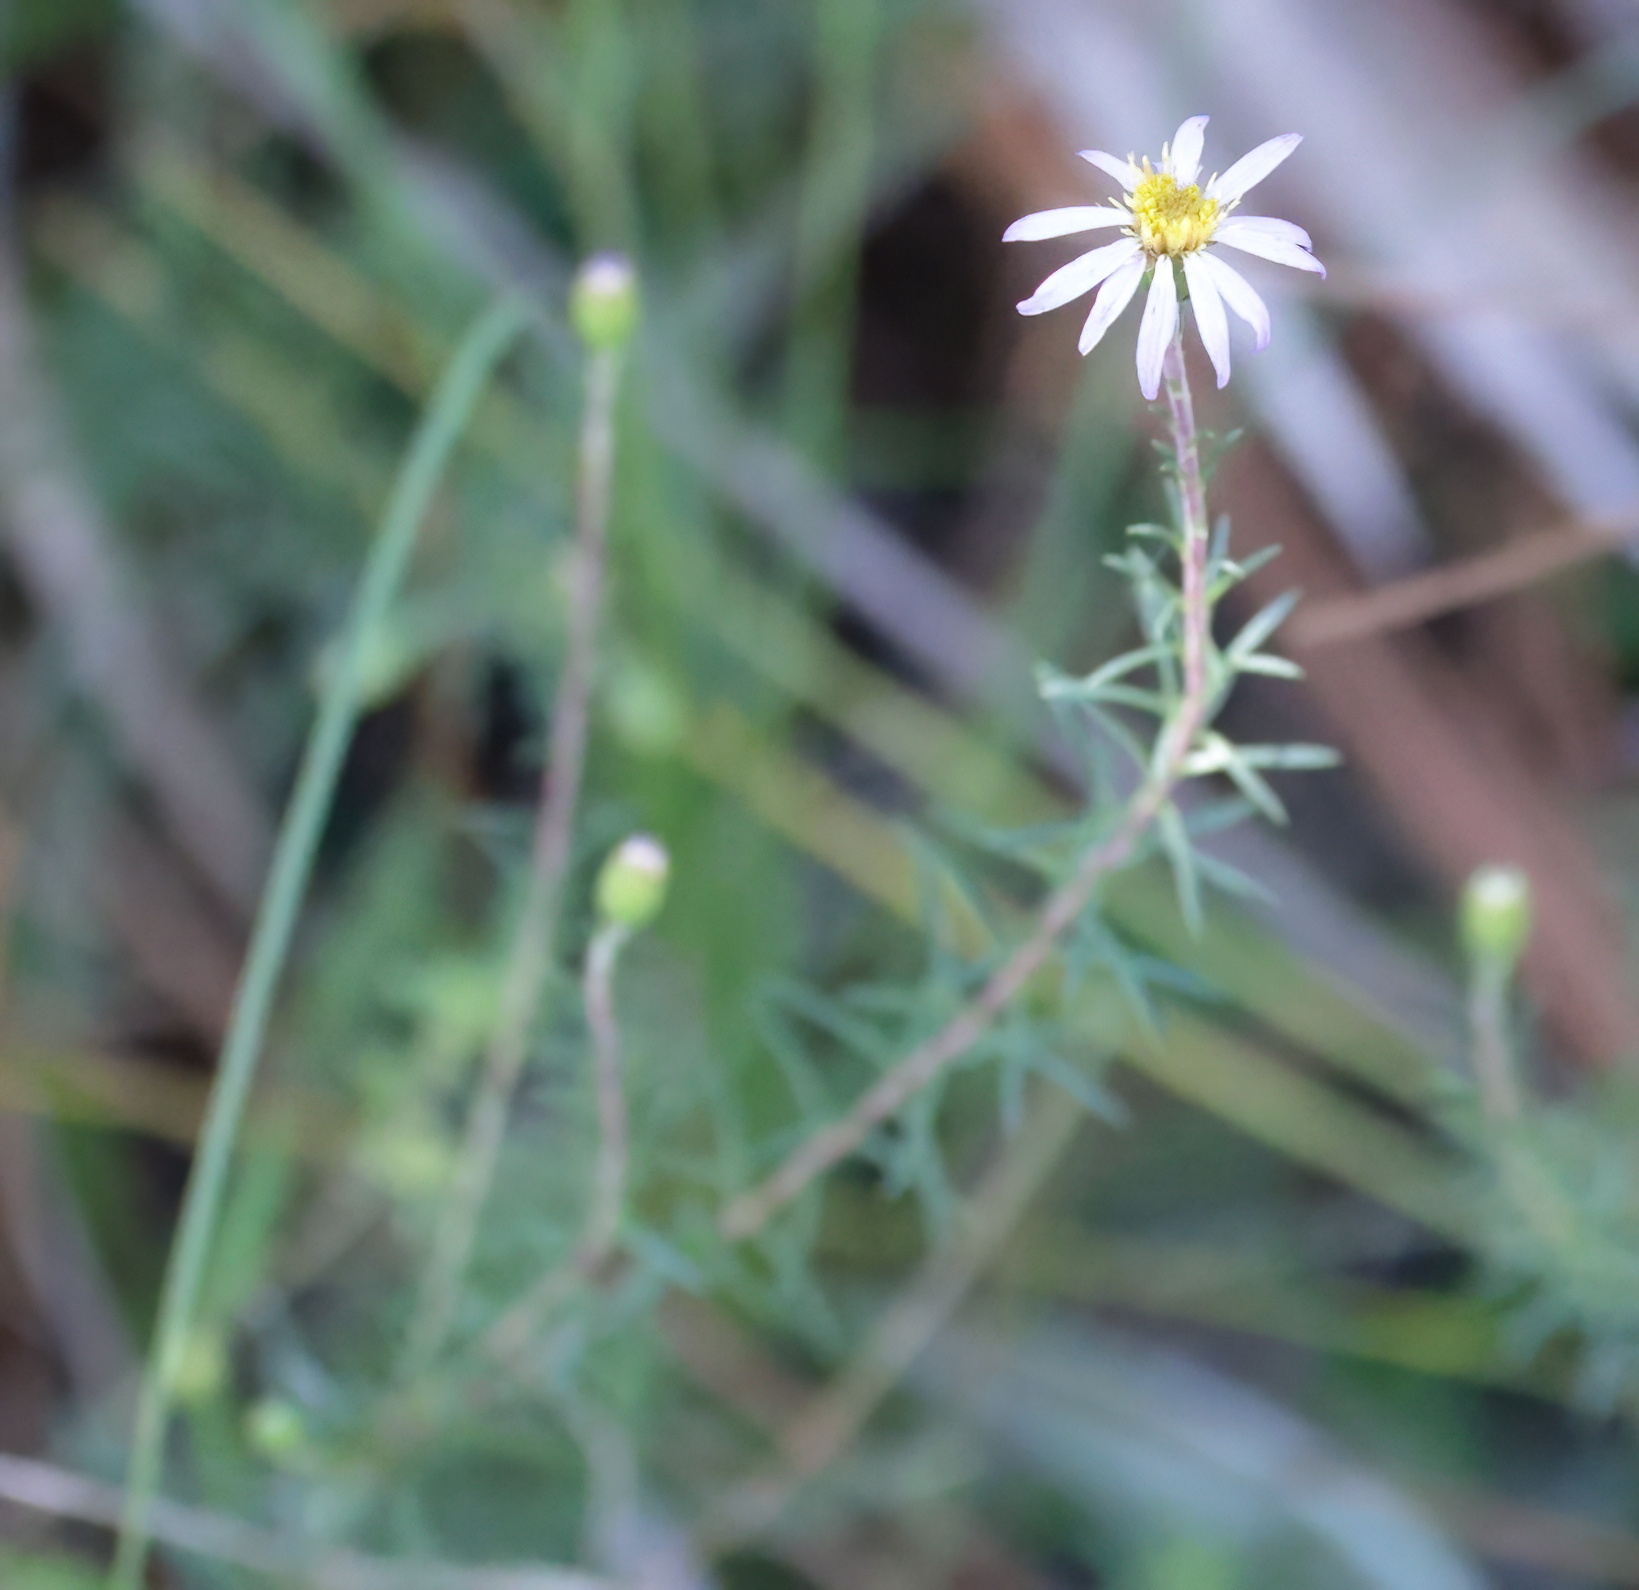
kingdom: Plantae
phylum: Tracheophyta
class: Magnoliopsida
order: Asterales
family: Asteraceae
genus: Ionactis
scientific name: Ionactis repens
